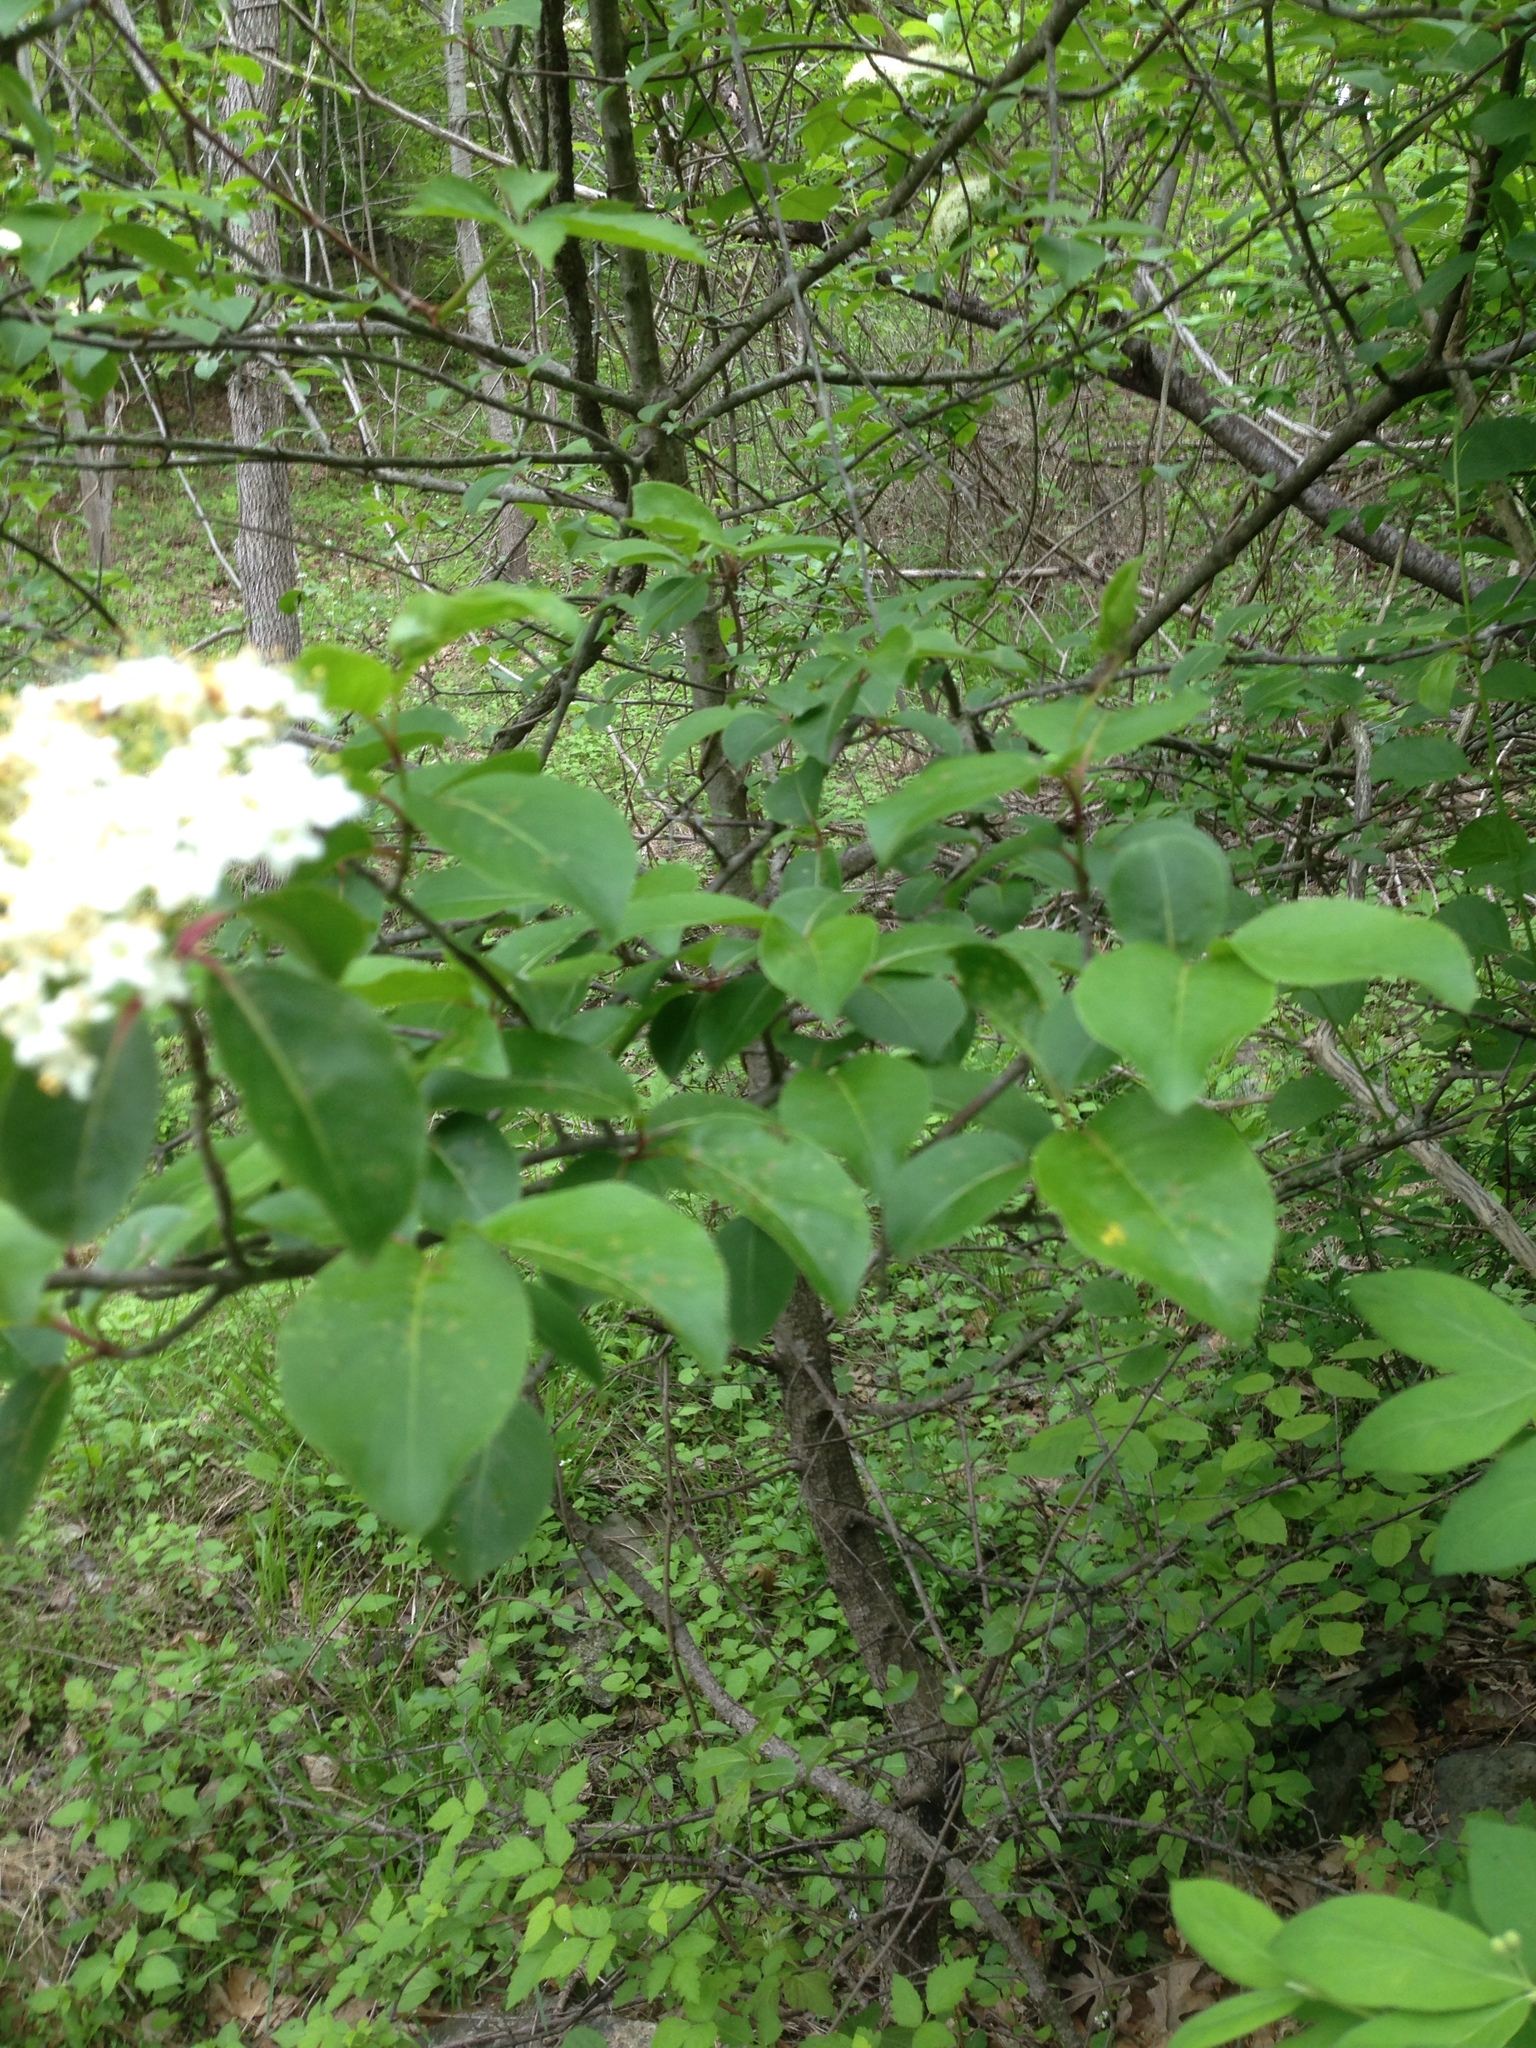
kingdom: Plantae
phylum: Tracheophyta
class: Magnoliopsida
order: Dipsacales
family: Viburnaceae
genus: Viburnum
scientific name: Viburnum prunifolium
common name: Black haw
